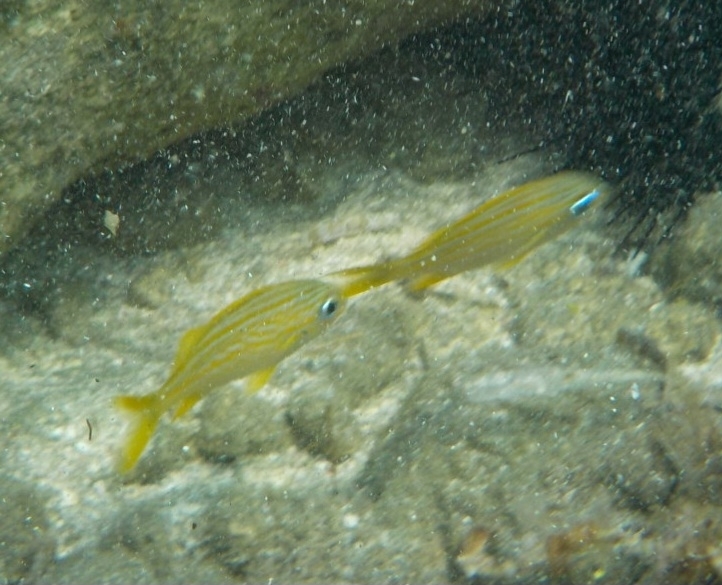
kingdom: Animalia
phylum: Chordata
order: Perciformes
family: Haemulidae
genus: Haemulon
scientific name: Haemulon flavolineatum
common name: French grunt
